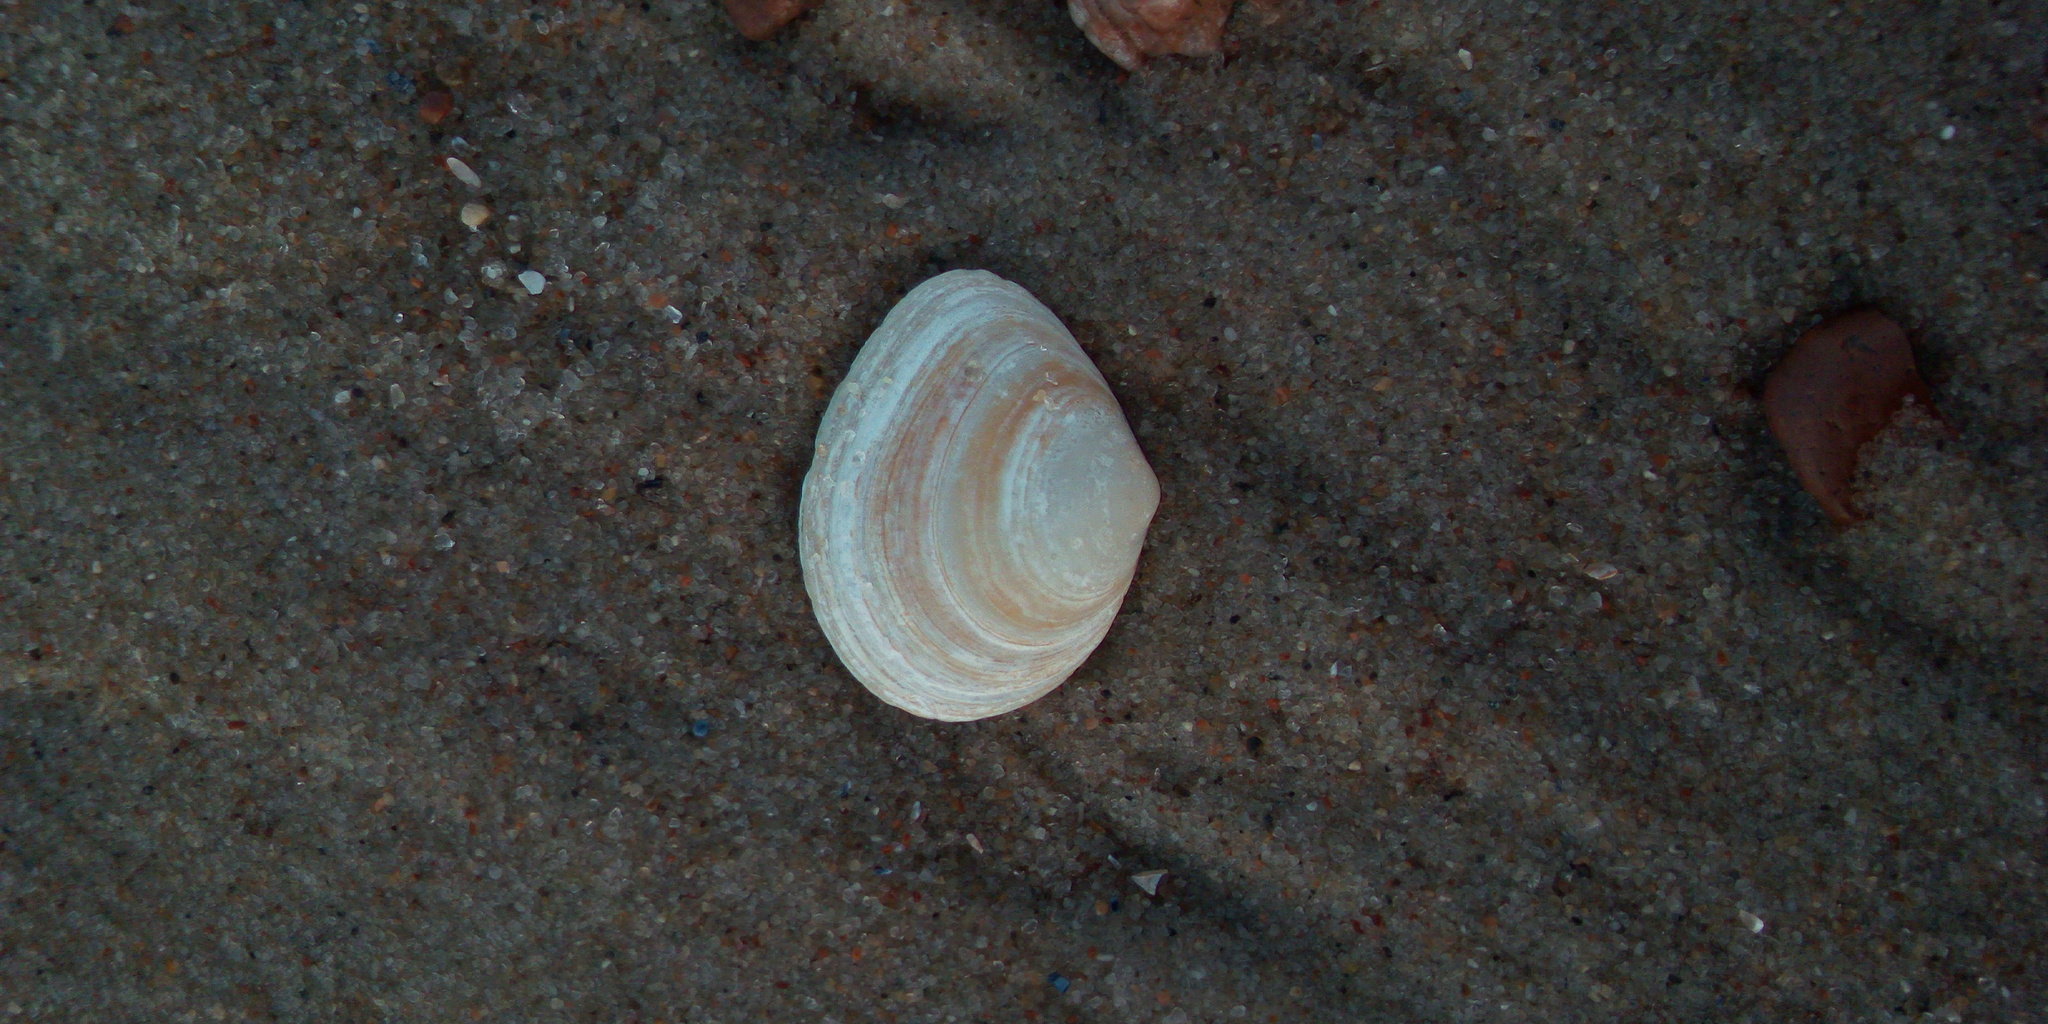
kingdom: Animalia
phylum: Mollusca
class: Bivalvia
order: Cardiida
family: Tellinidae
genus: Macoma
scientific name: Macoma balthica
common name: Baltic tellin
